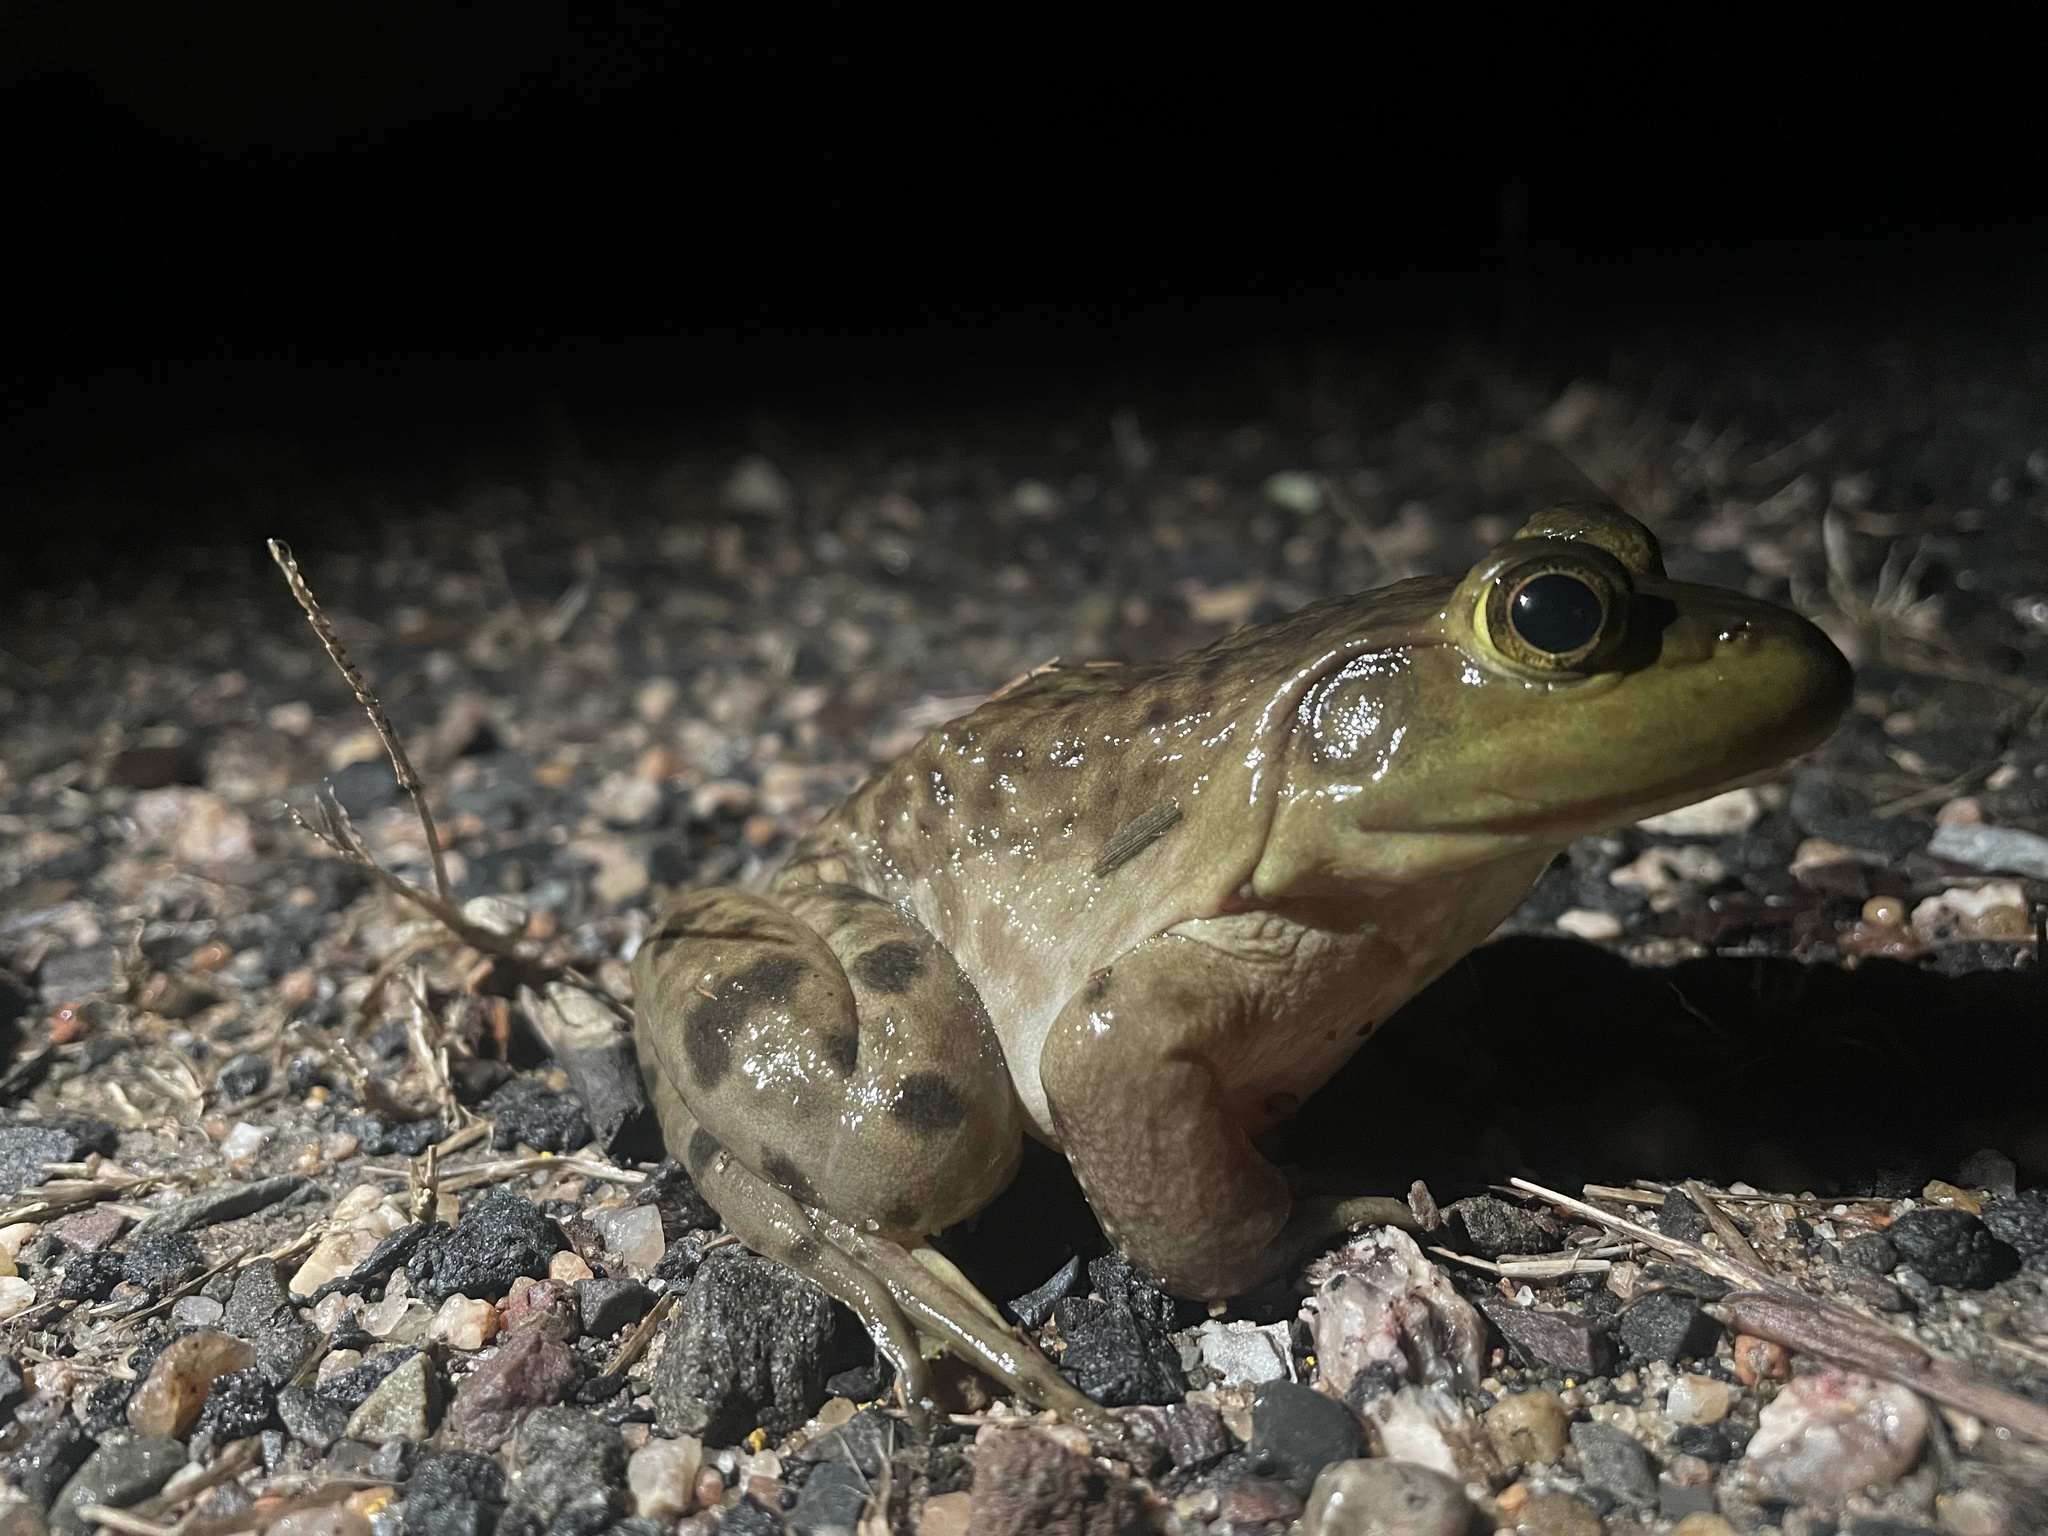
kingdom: Animalia
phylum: Chordata
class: Amphibia
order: Anura
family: Ranidae
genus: Lithobates
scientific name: Lithobates clamitans
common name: Green frog
